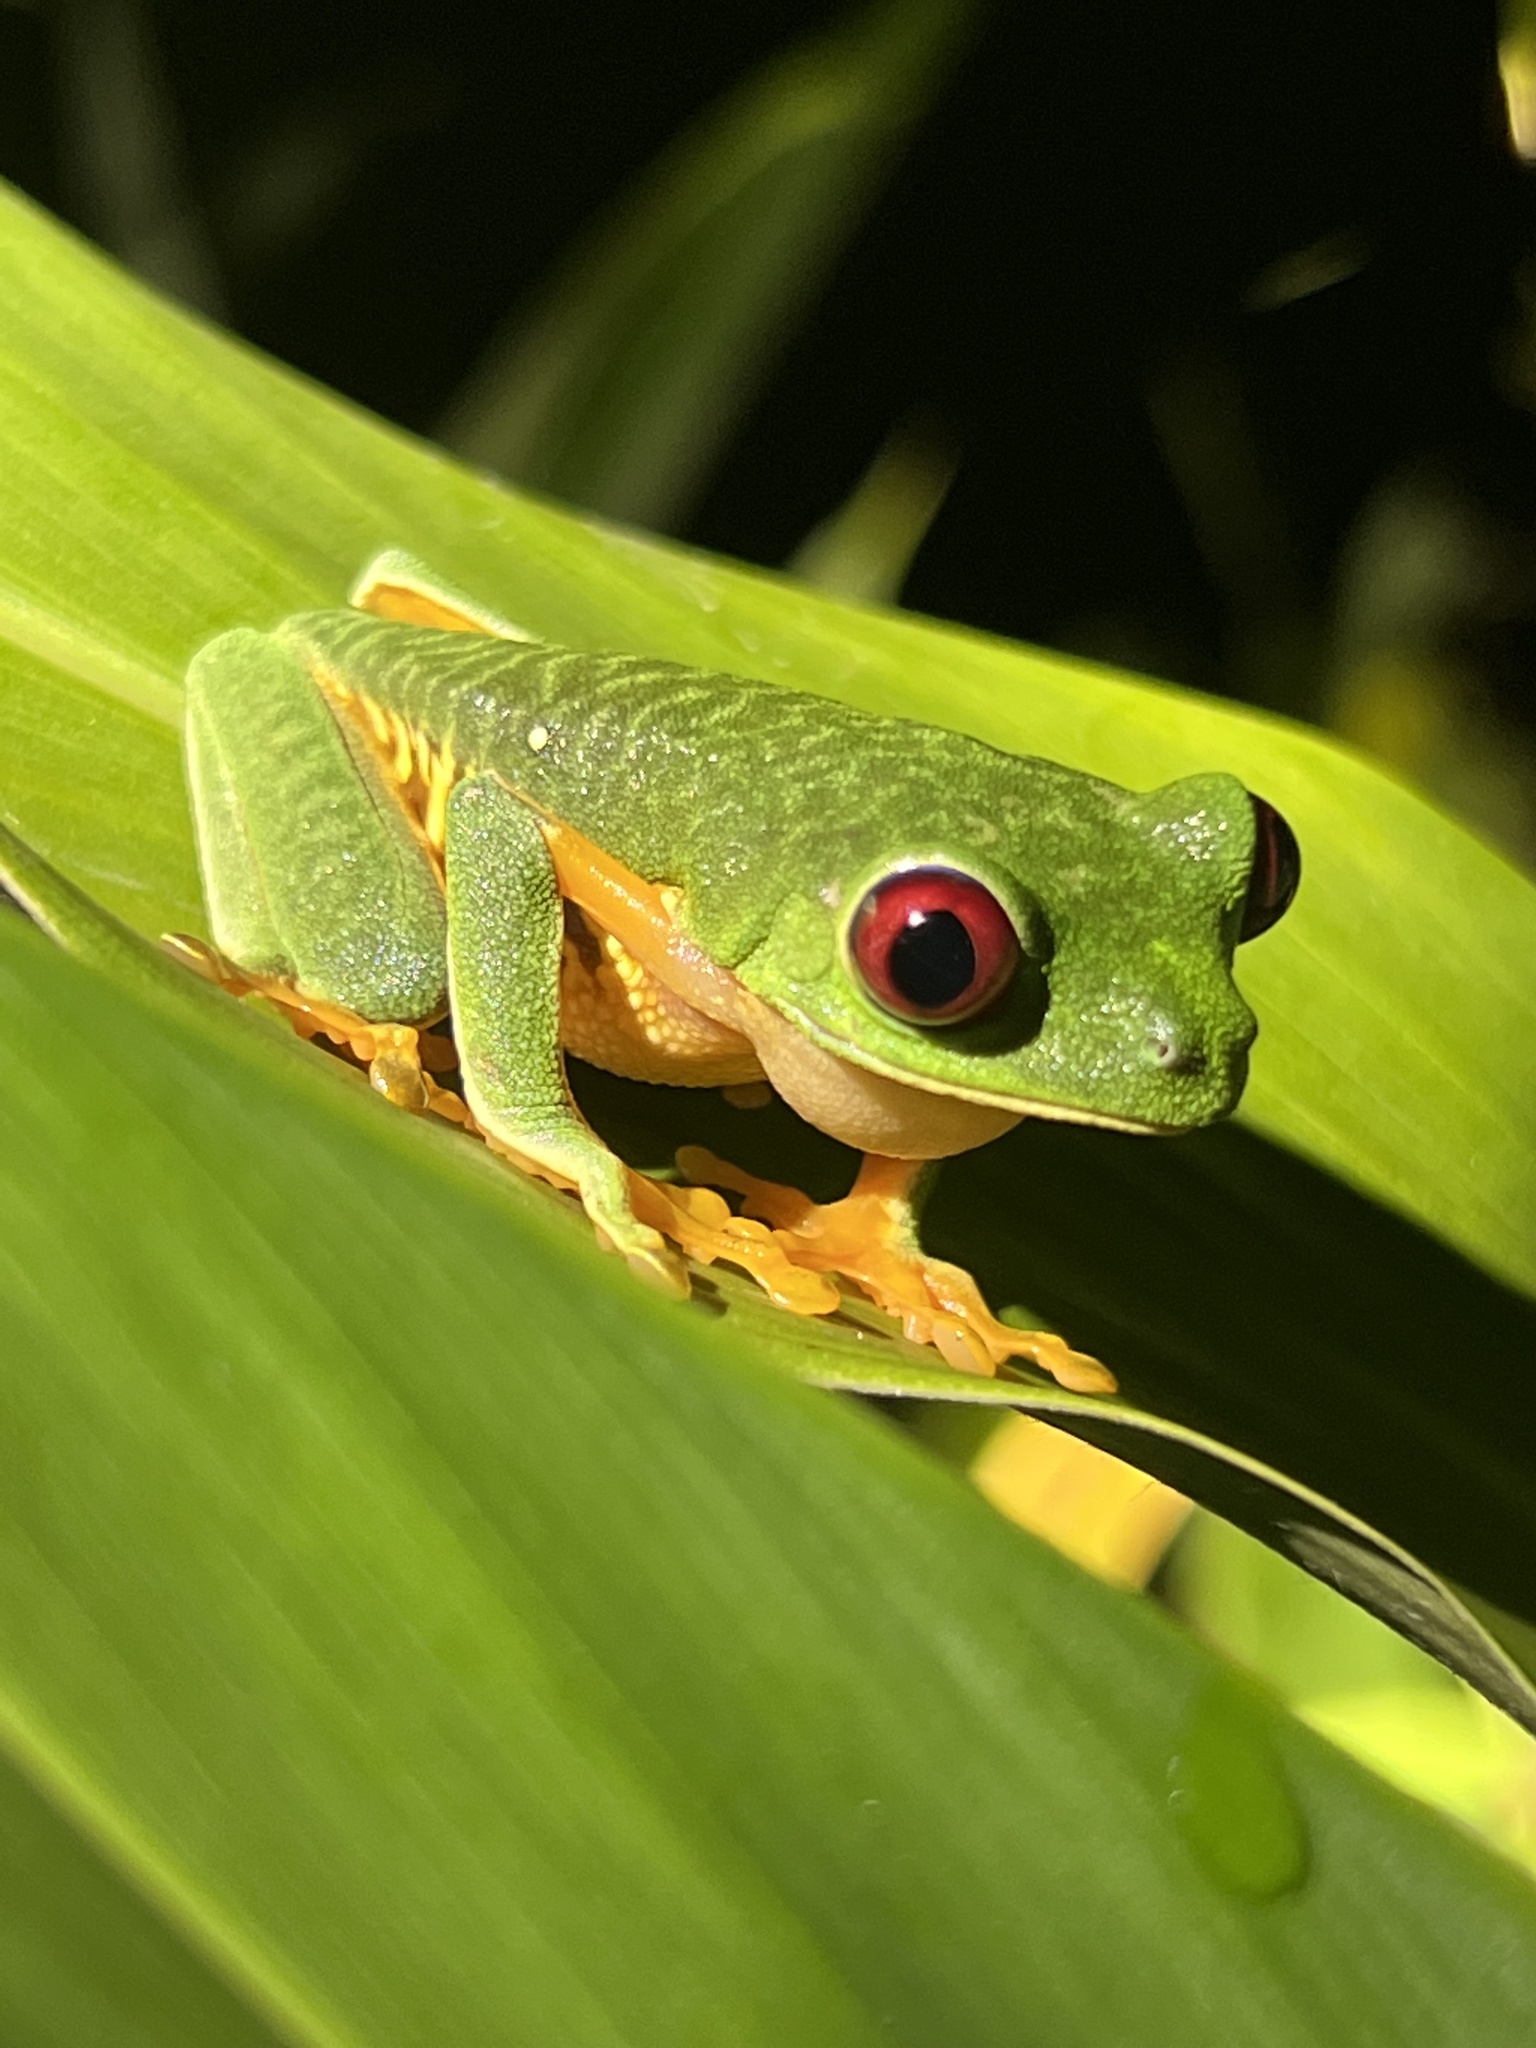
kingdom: Animalia
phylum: Chordata
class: Amphibia
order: Anura
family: Phyllomedusidae
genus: Agalychnis
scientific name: Agalychnis callidryas
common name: Red-eyed treefrog
